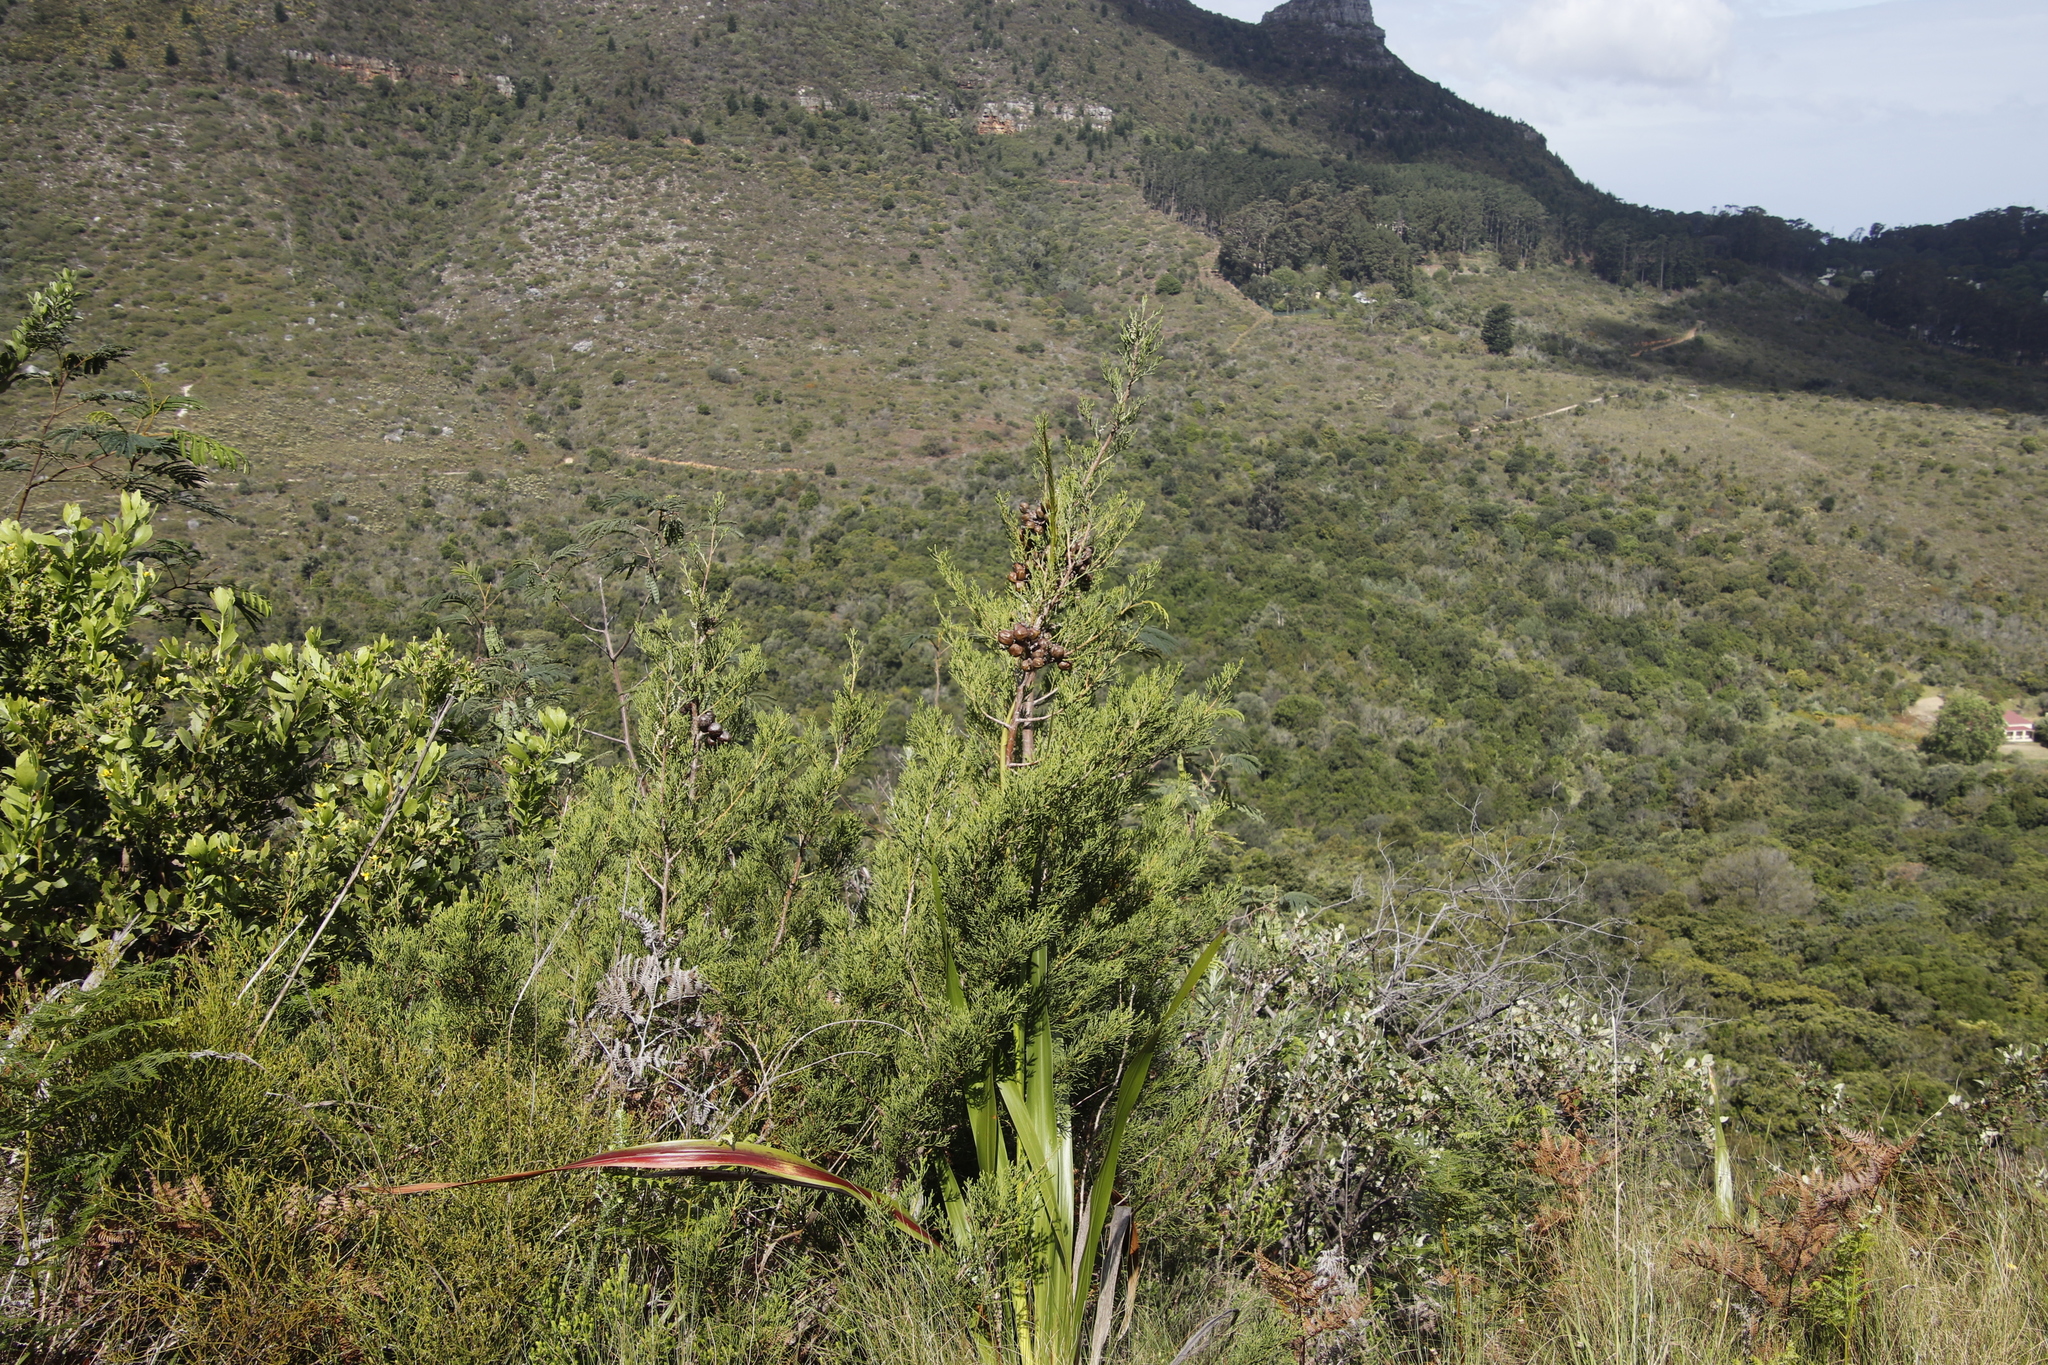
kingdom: Plantae
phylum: Tracheophyta
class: Pinopsida
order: Pinales
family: Cupressaceae
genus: Widdringtonia
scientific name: Widdringtonia nodiflora
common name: Cape cypress
